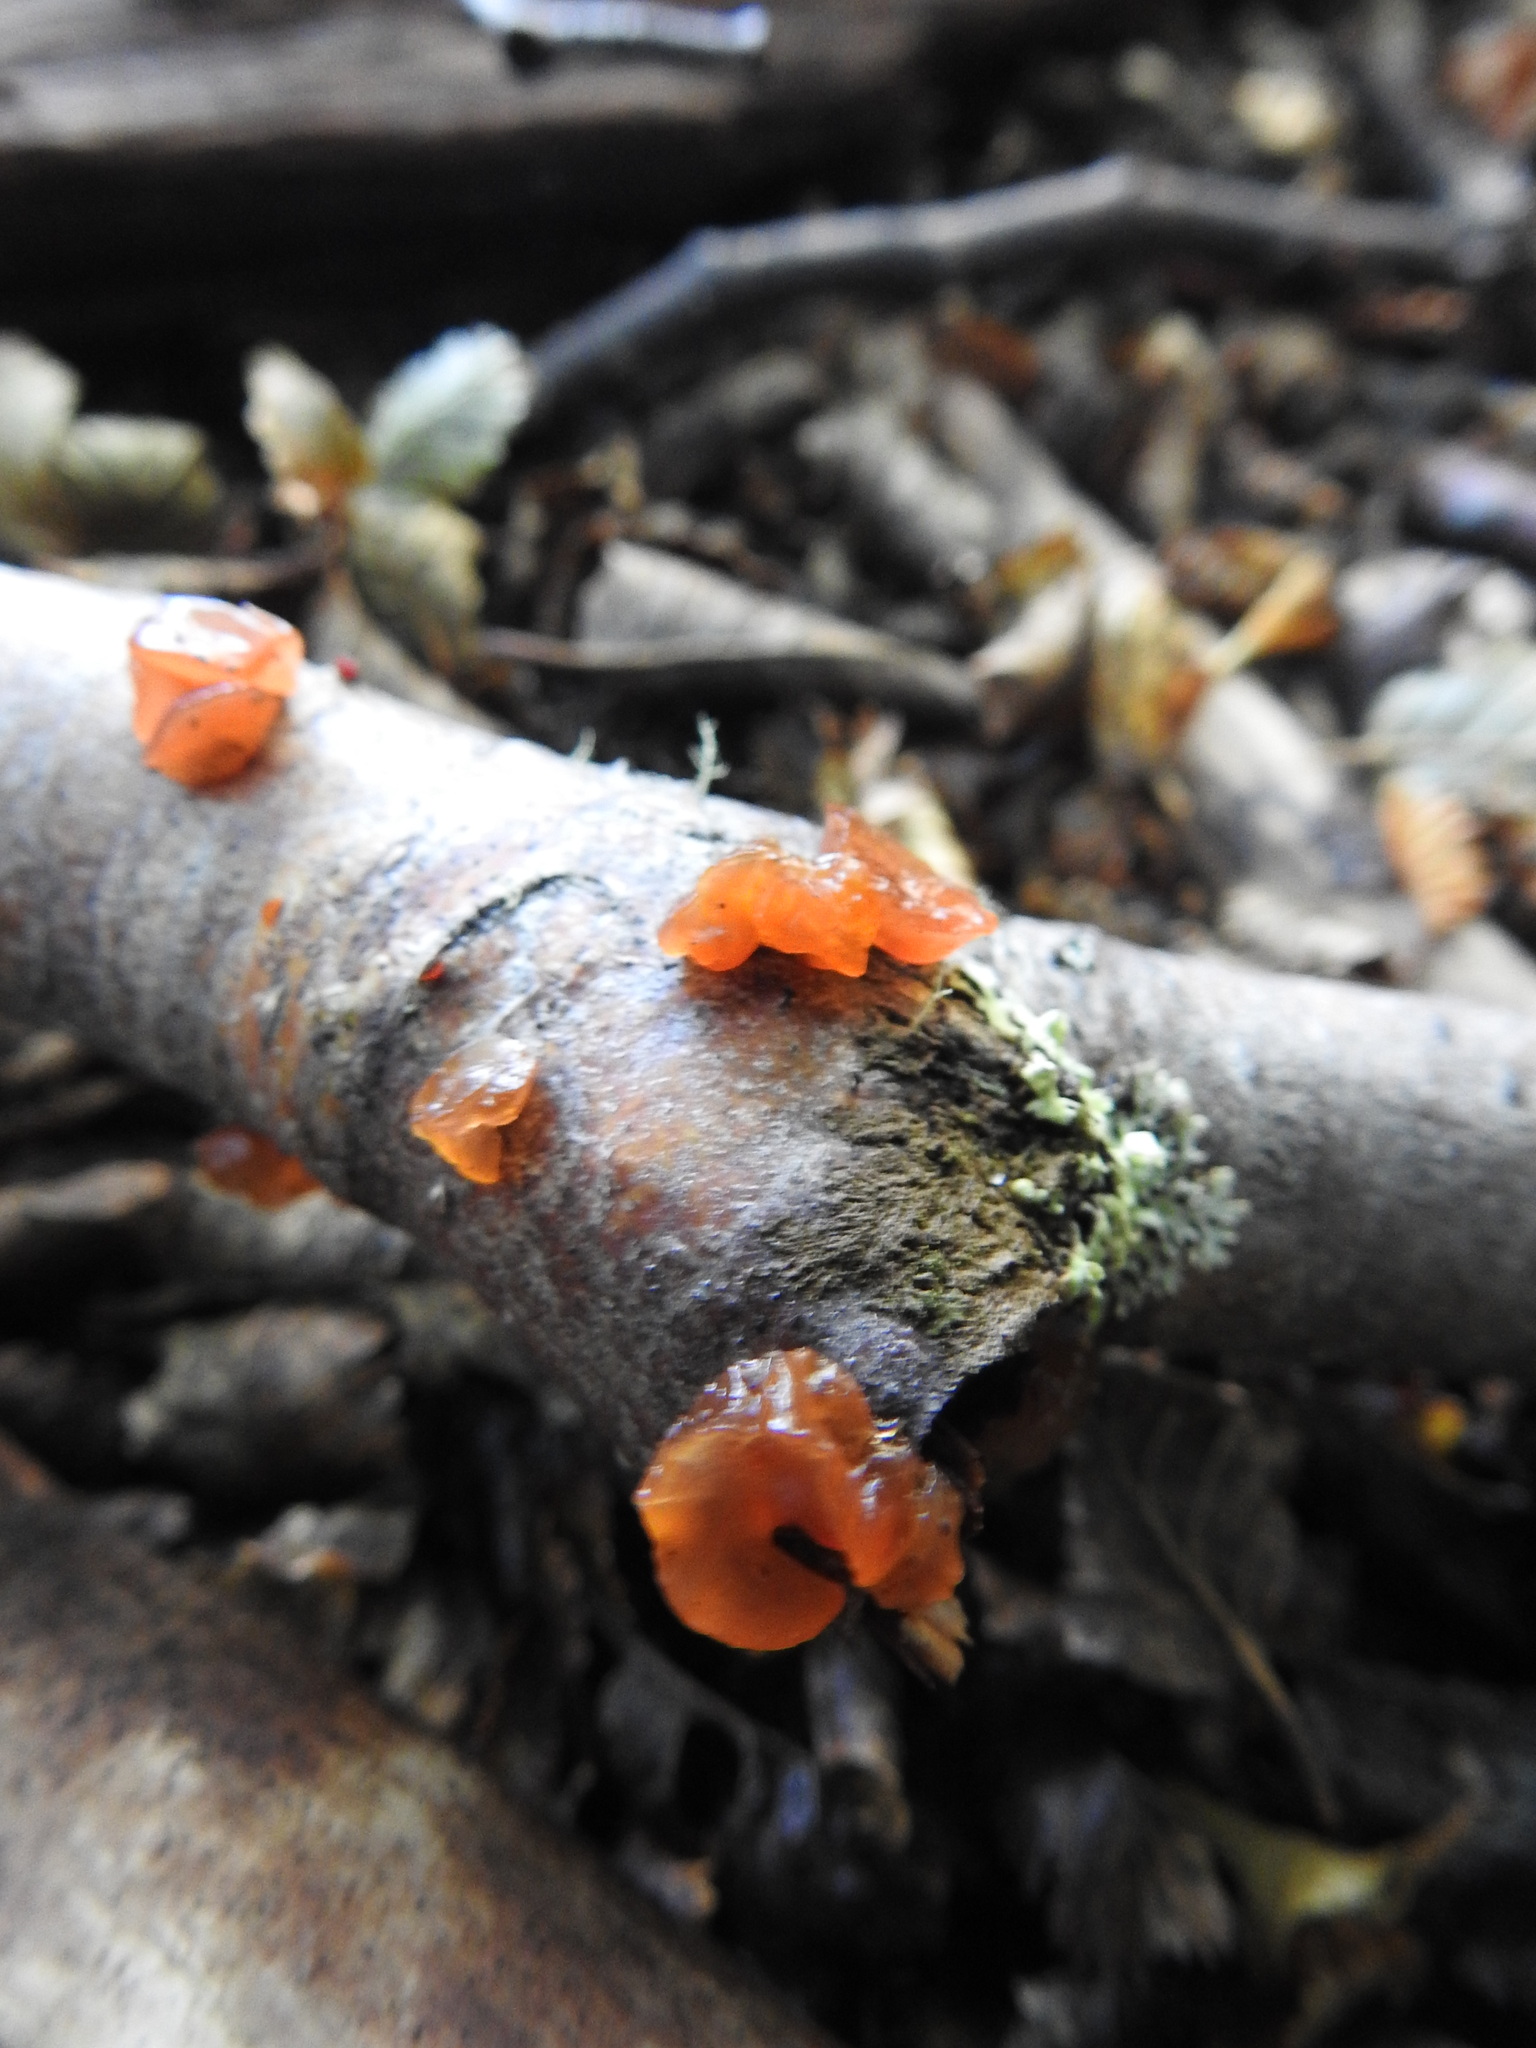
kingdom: Fungi
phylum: Basidiomycota
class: Dacrymycetes
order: Dacrymycetales
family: Dacrymycetaceae
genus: Guepiniopsis
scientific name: Guepiniopsis alpina
